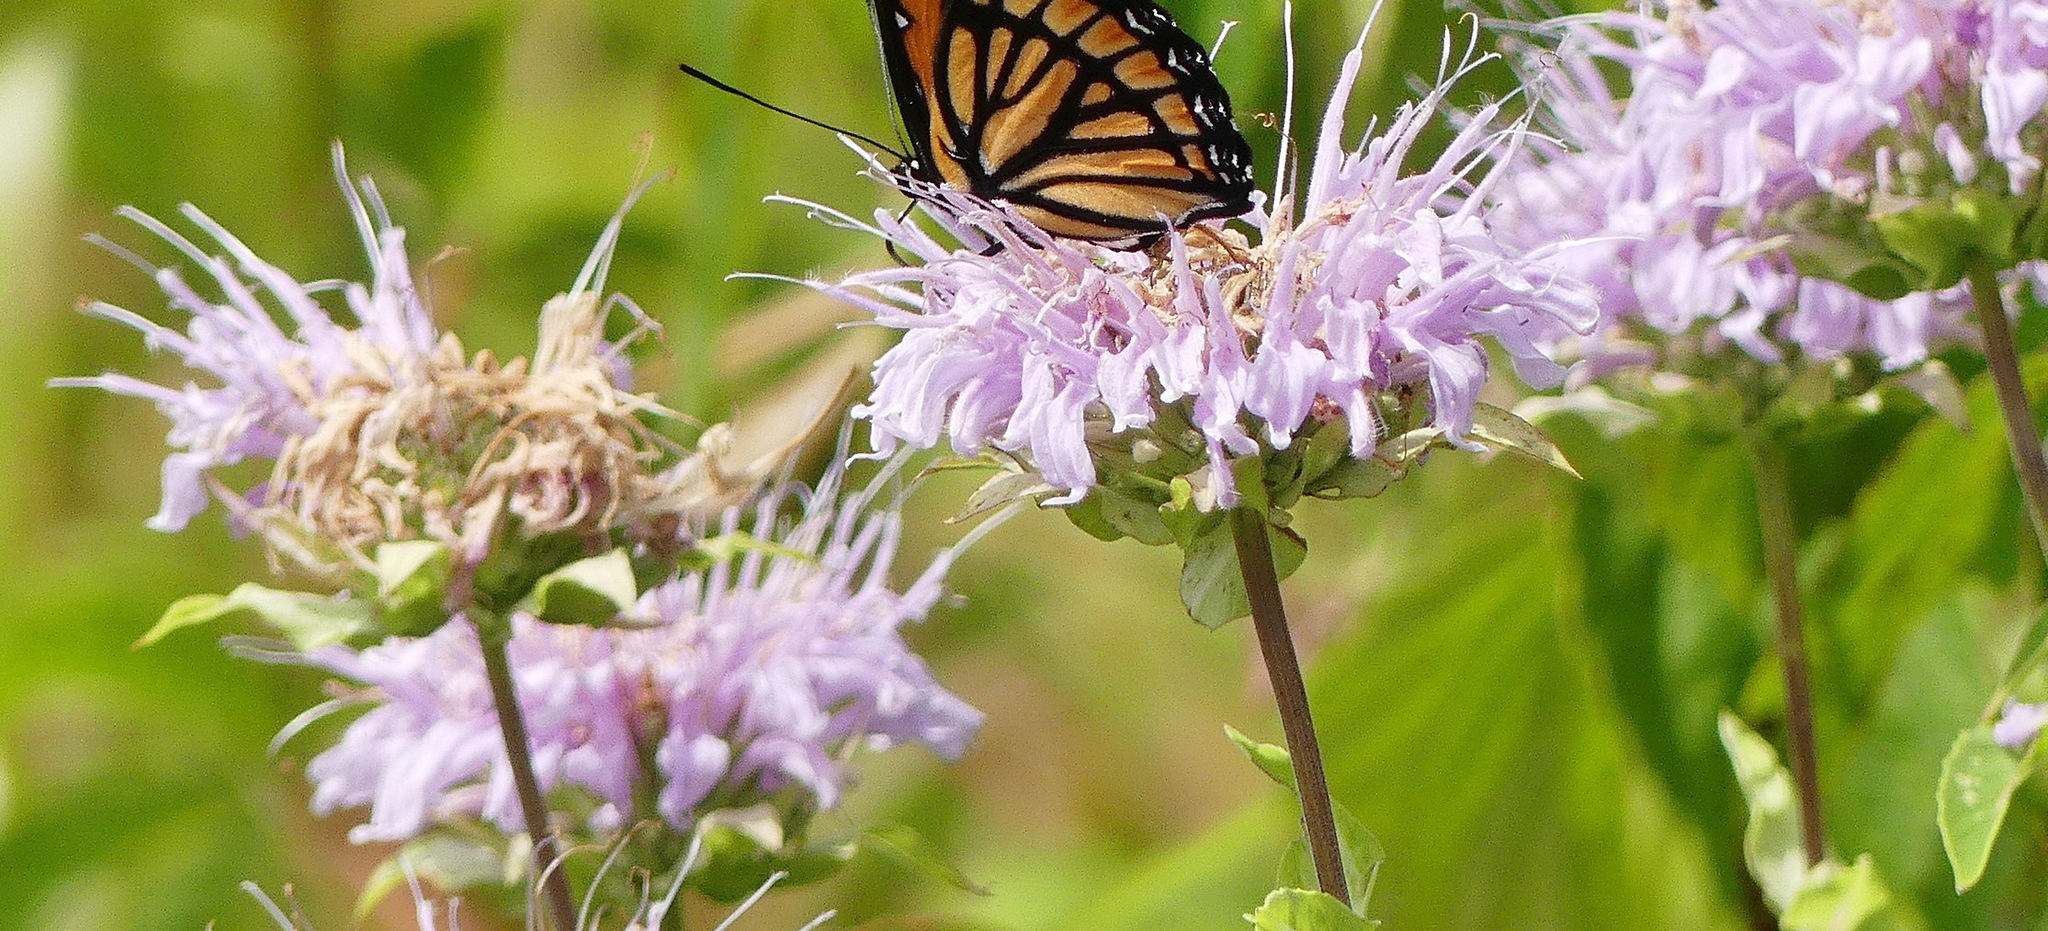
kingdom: Plantae
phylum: Tracheophyta
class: Magnoliopsida
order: Lamiales
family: Lamiaceae
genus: Monarda
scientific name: Monarda fistulosa
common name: Purple beebalm
